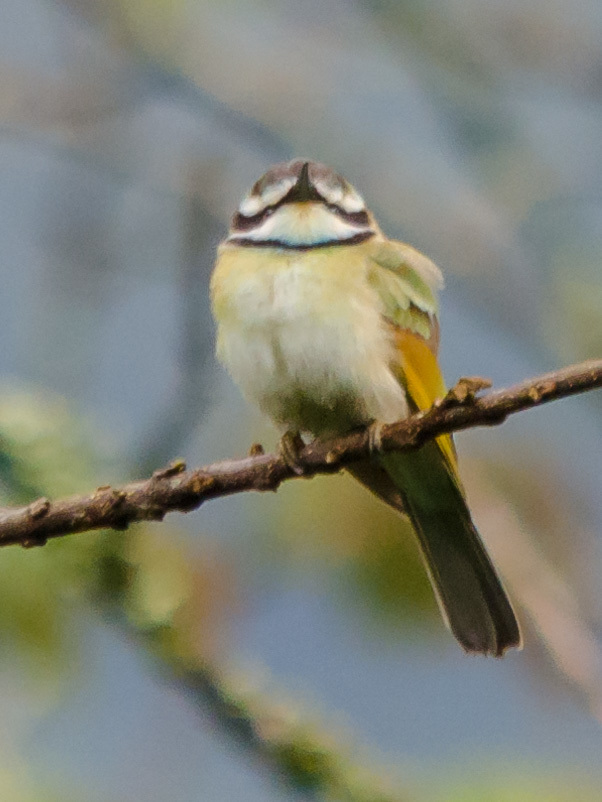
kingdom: Animalia
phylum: Chordata
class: Aves
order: Coraciiformes
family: Meropidae
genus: Merops
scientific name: Merops albicollis
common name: White-throated bee-eater
